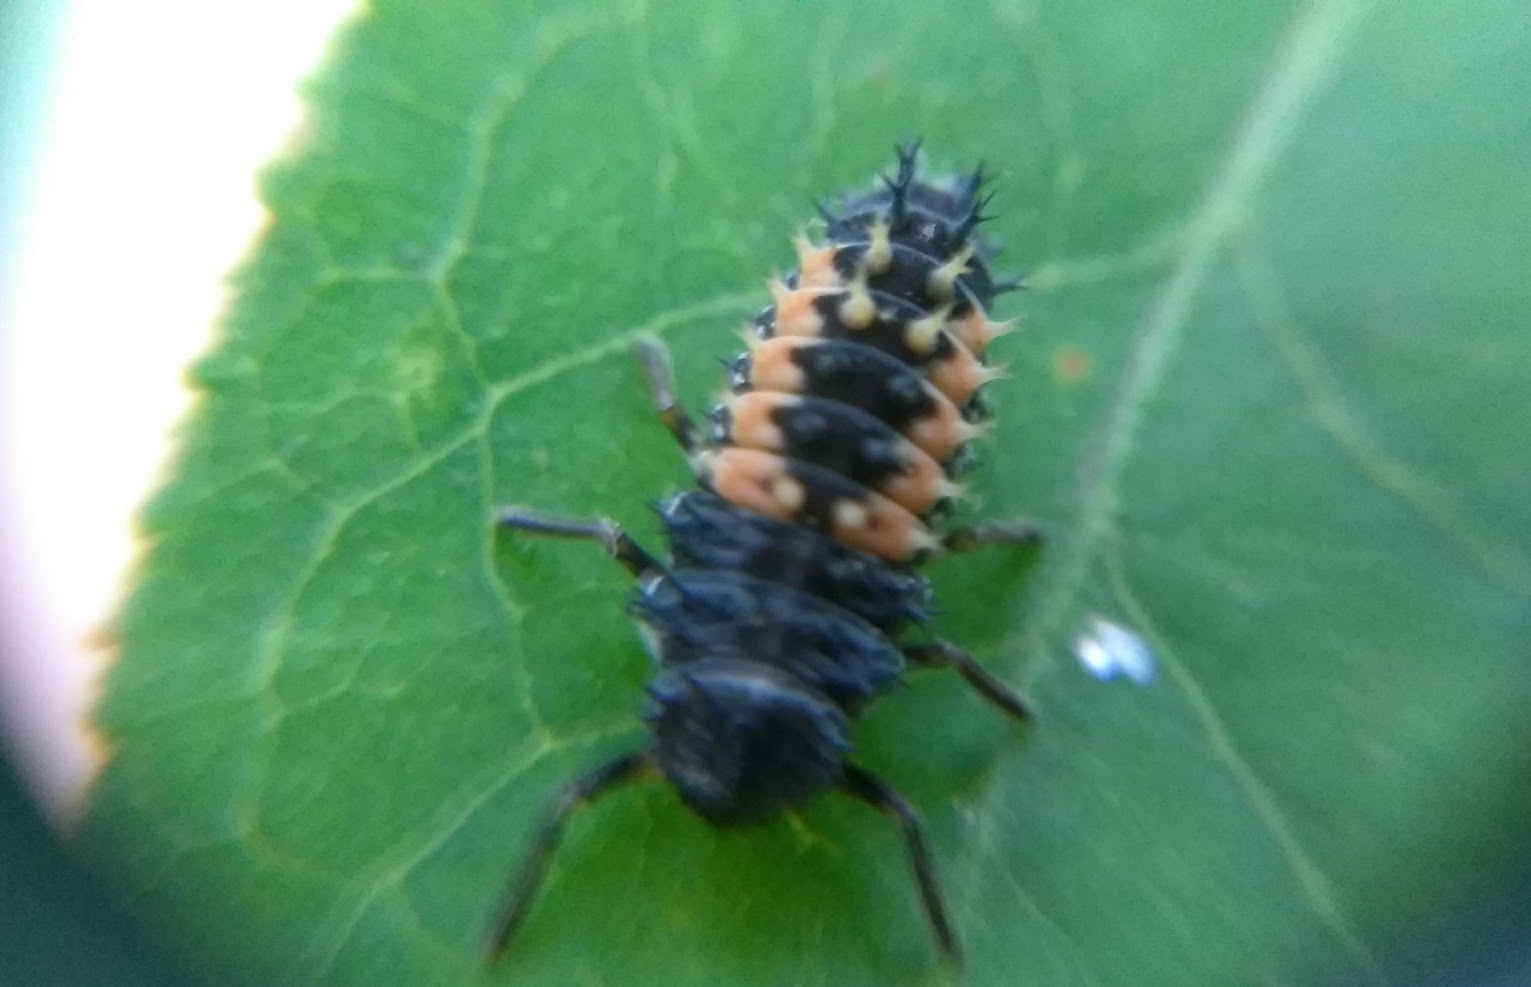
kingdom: Animalia
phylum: Arthropoda
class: Insecta
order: Coleoptera
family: Coccinellidae
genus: Harmonia
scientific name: Harmonia axyridis
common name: Harlequin ladybird
